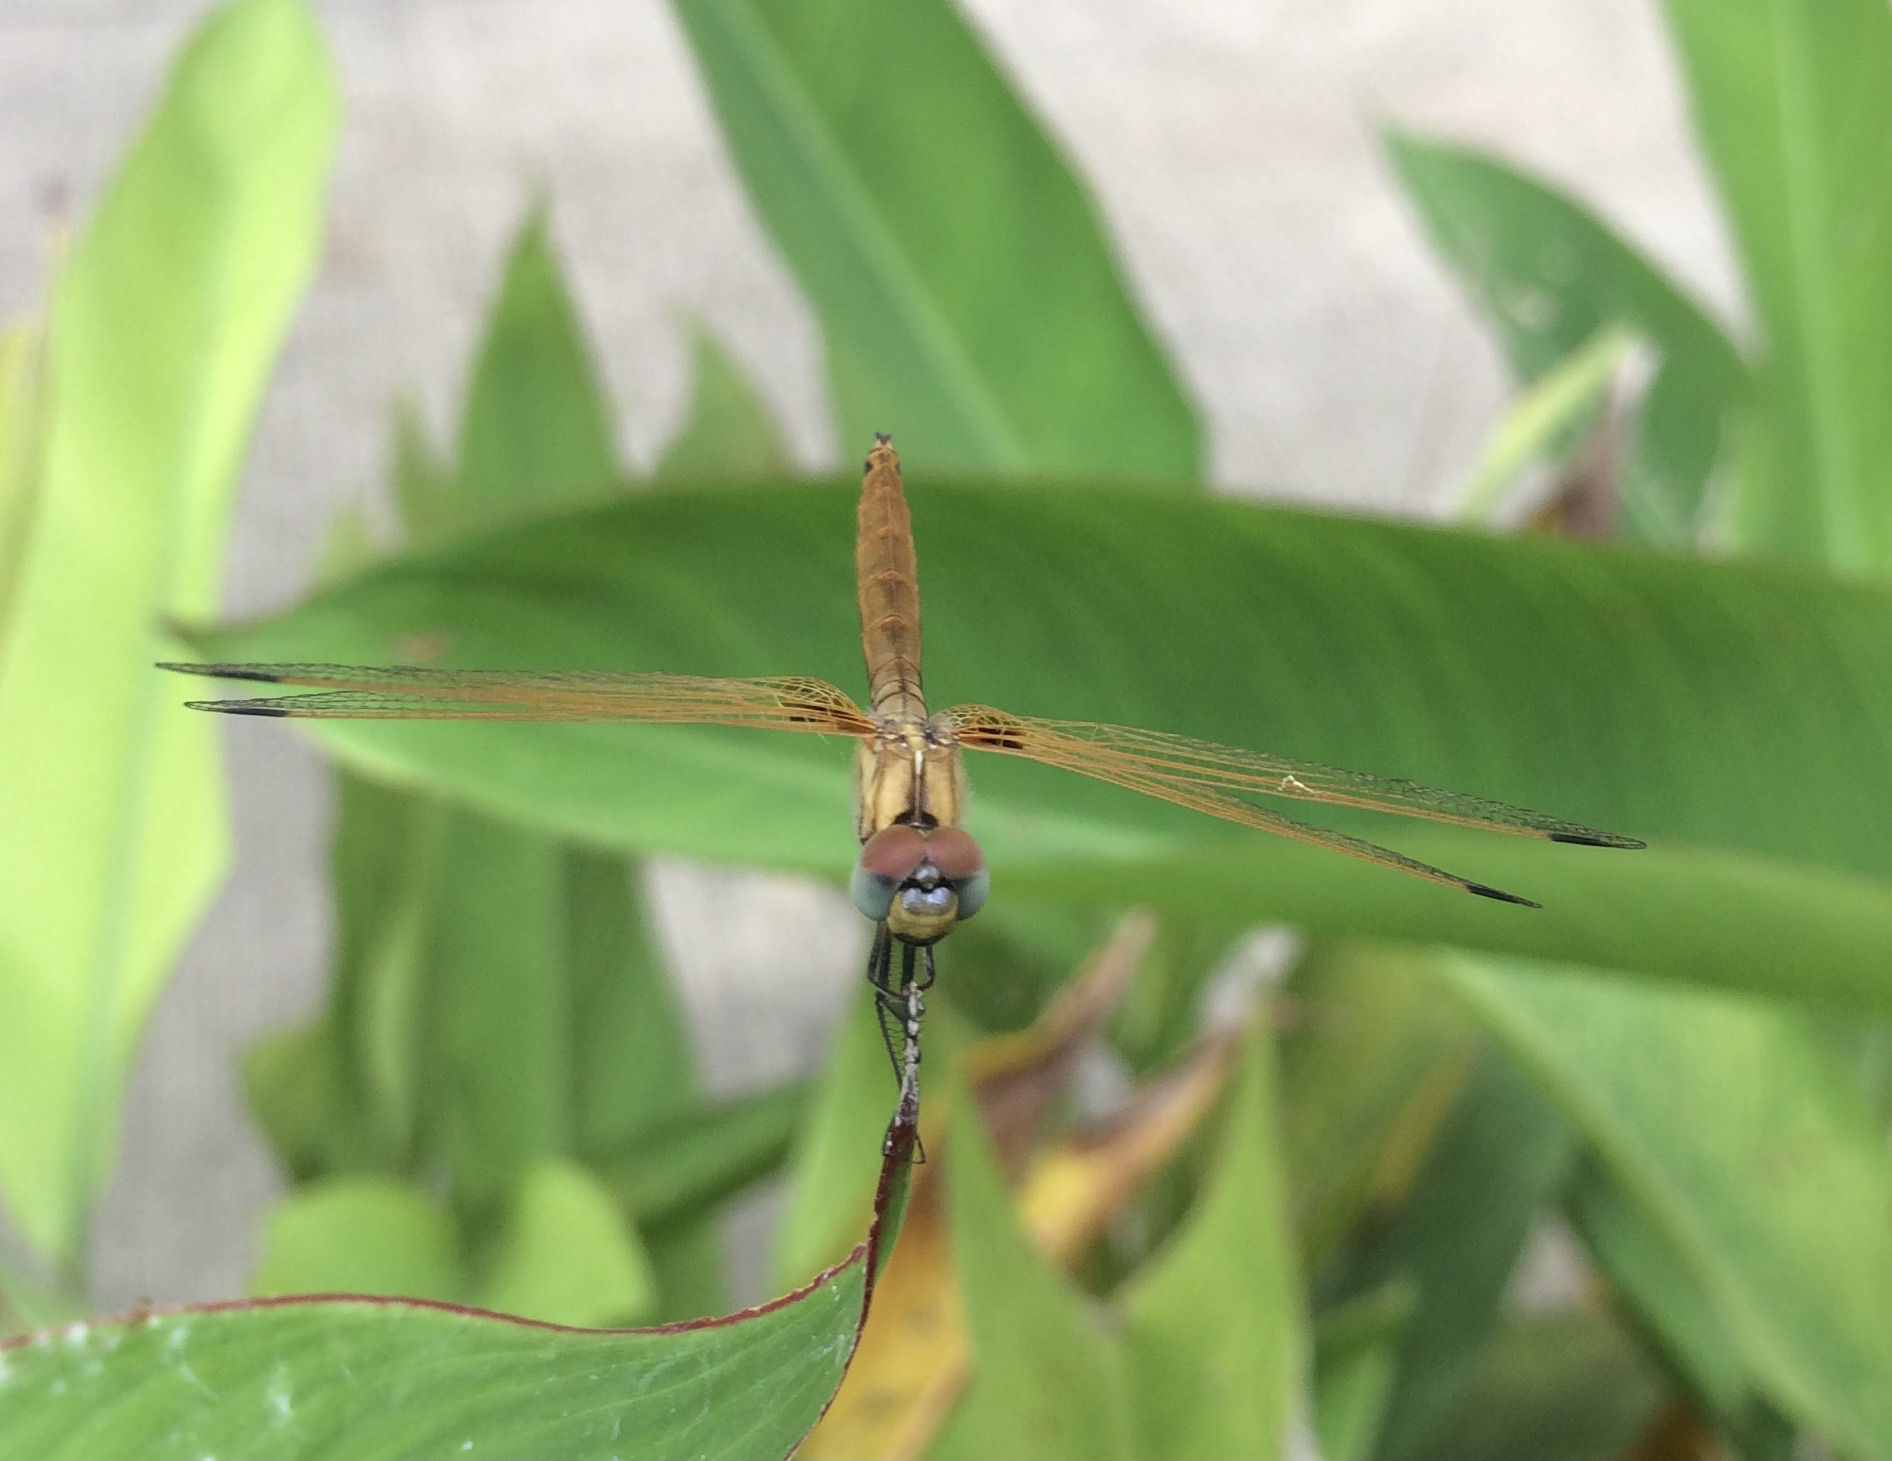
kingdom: Animalia
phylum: Arthropoda
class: Insecta
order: Odonata
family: Libellulidae
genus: Trithemis
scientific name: Trithemis aurora
